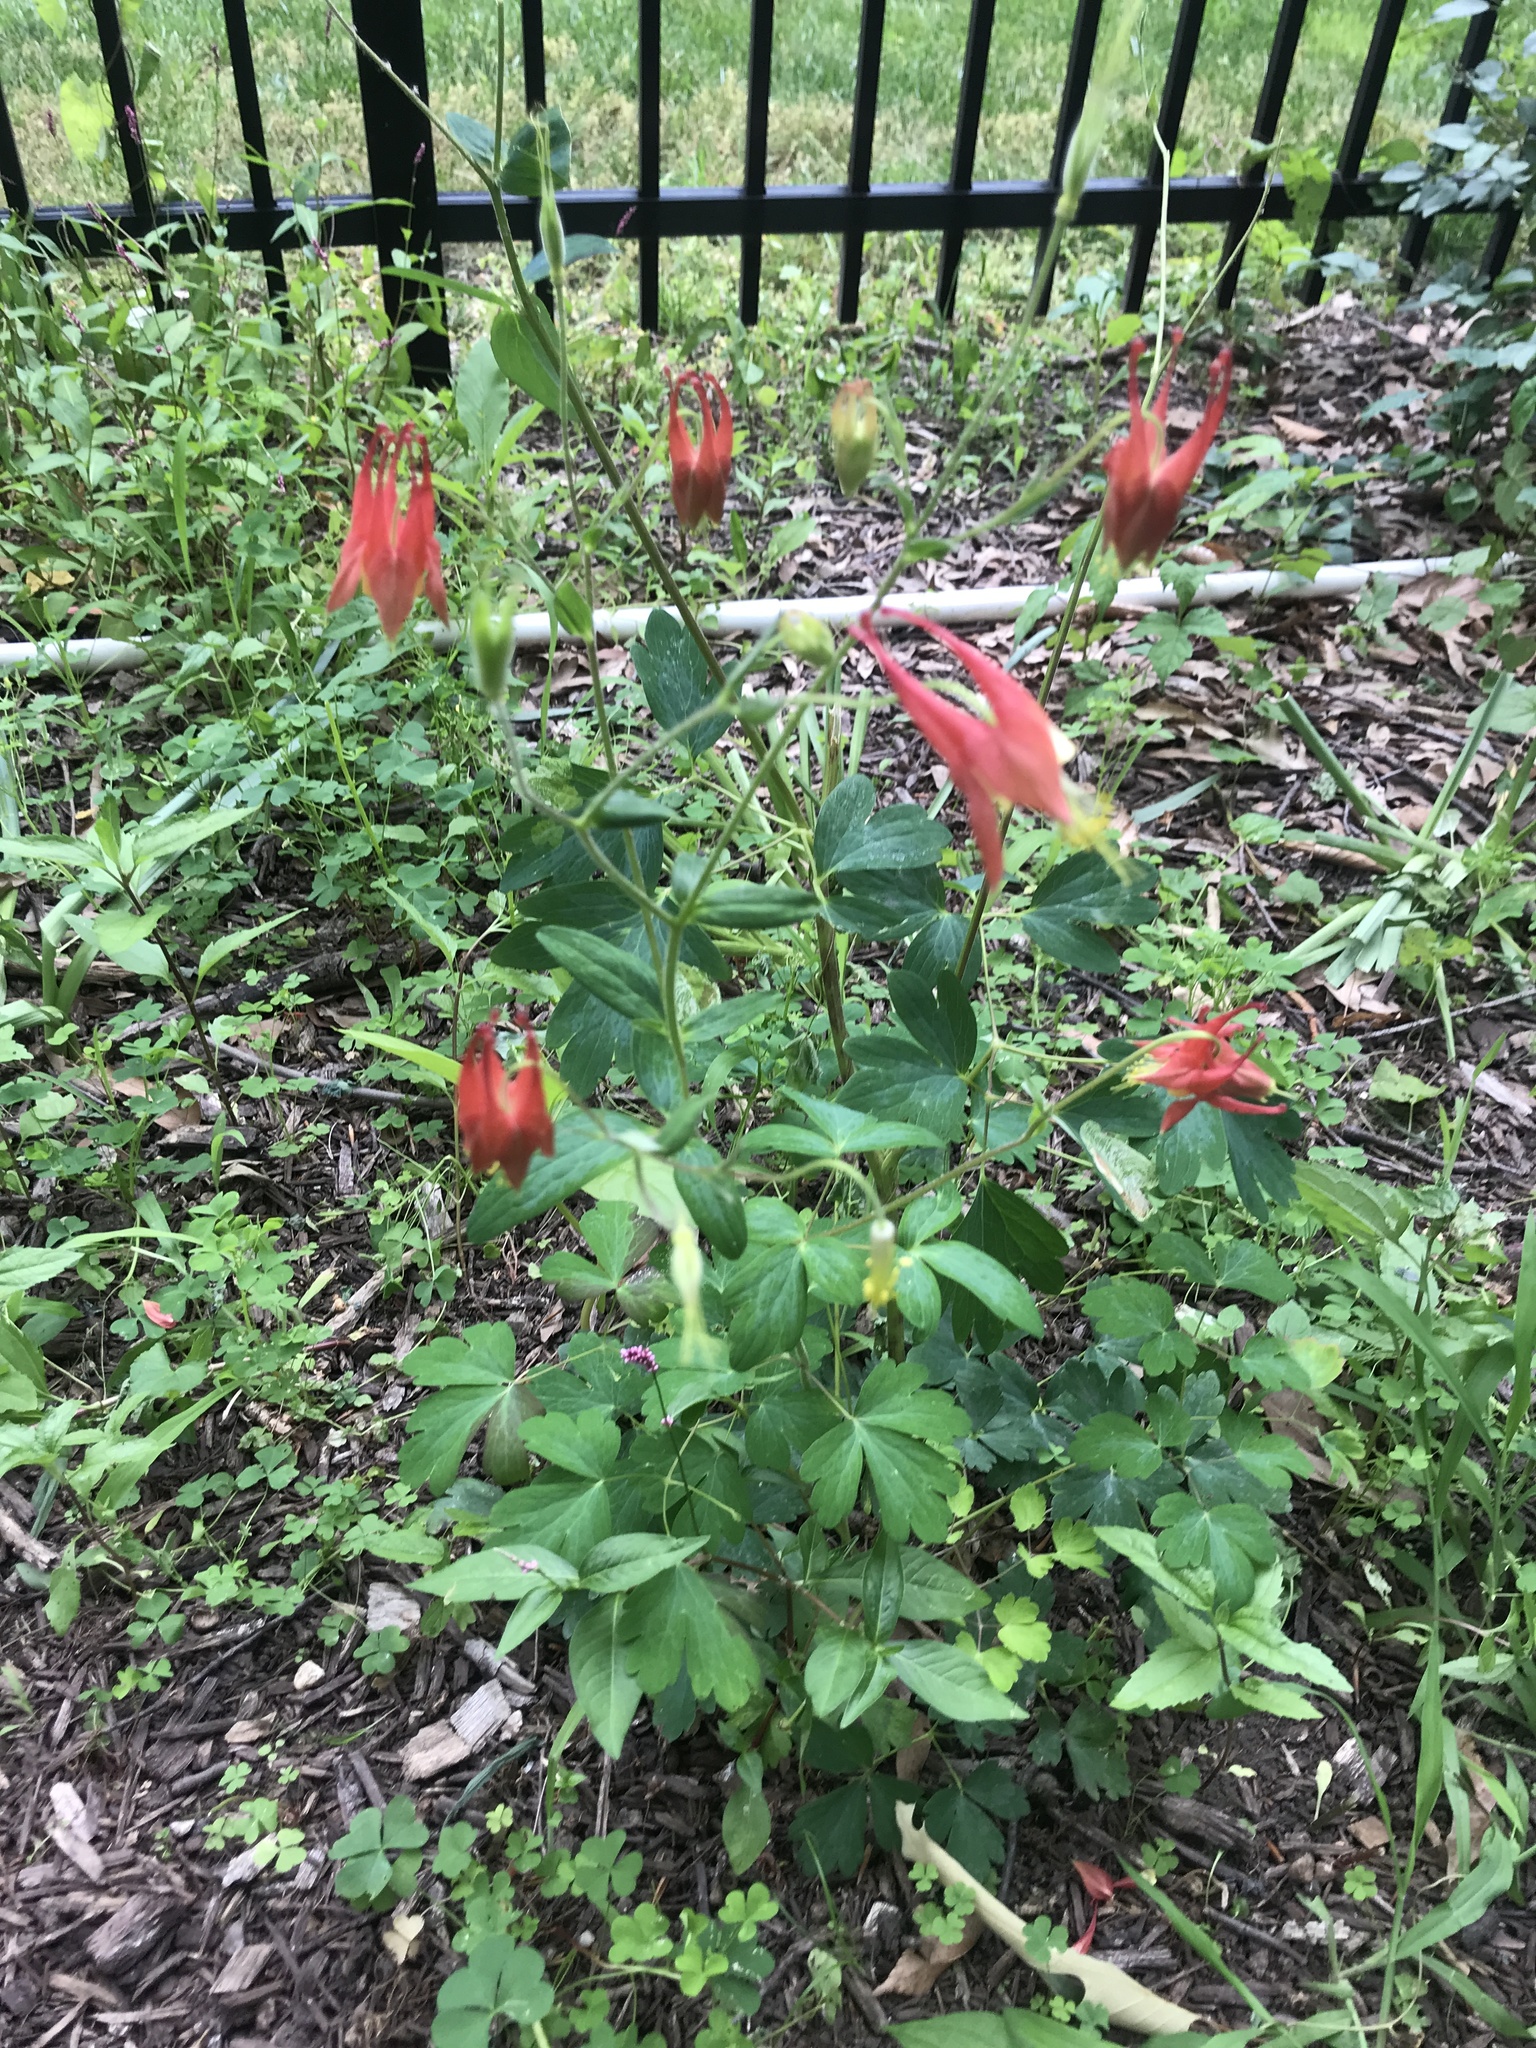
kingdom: Plantae
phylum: Tracheophyta
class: Magnoliopsida
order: Ranunculales
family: Ranunculaceae
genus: Aquilegia
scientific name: Aquilegia canadensis
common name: American columbine
